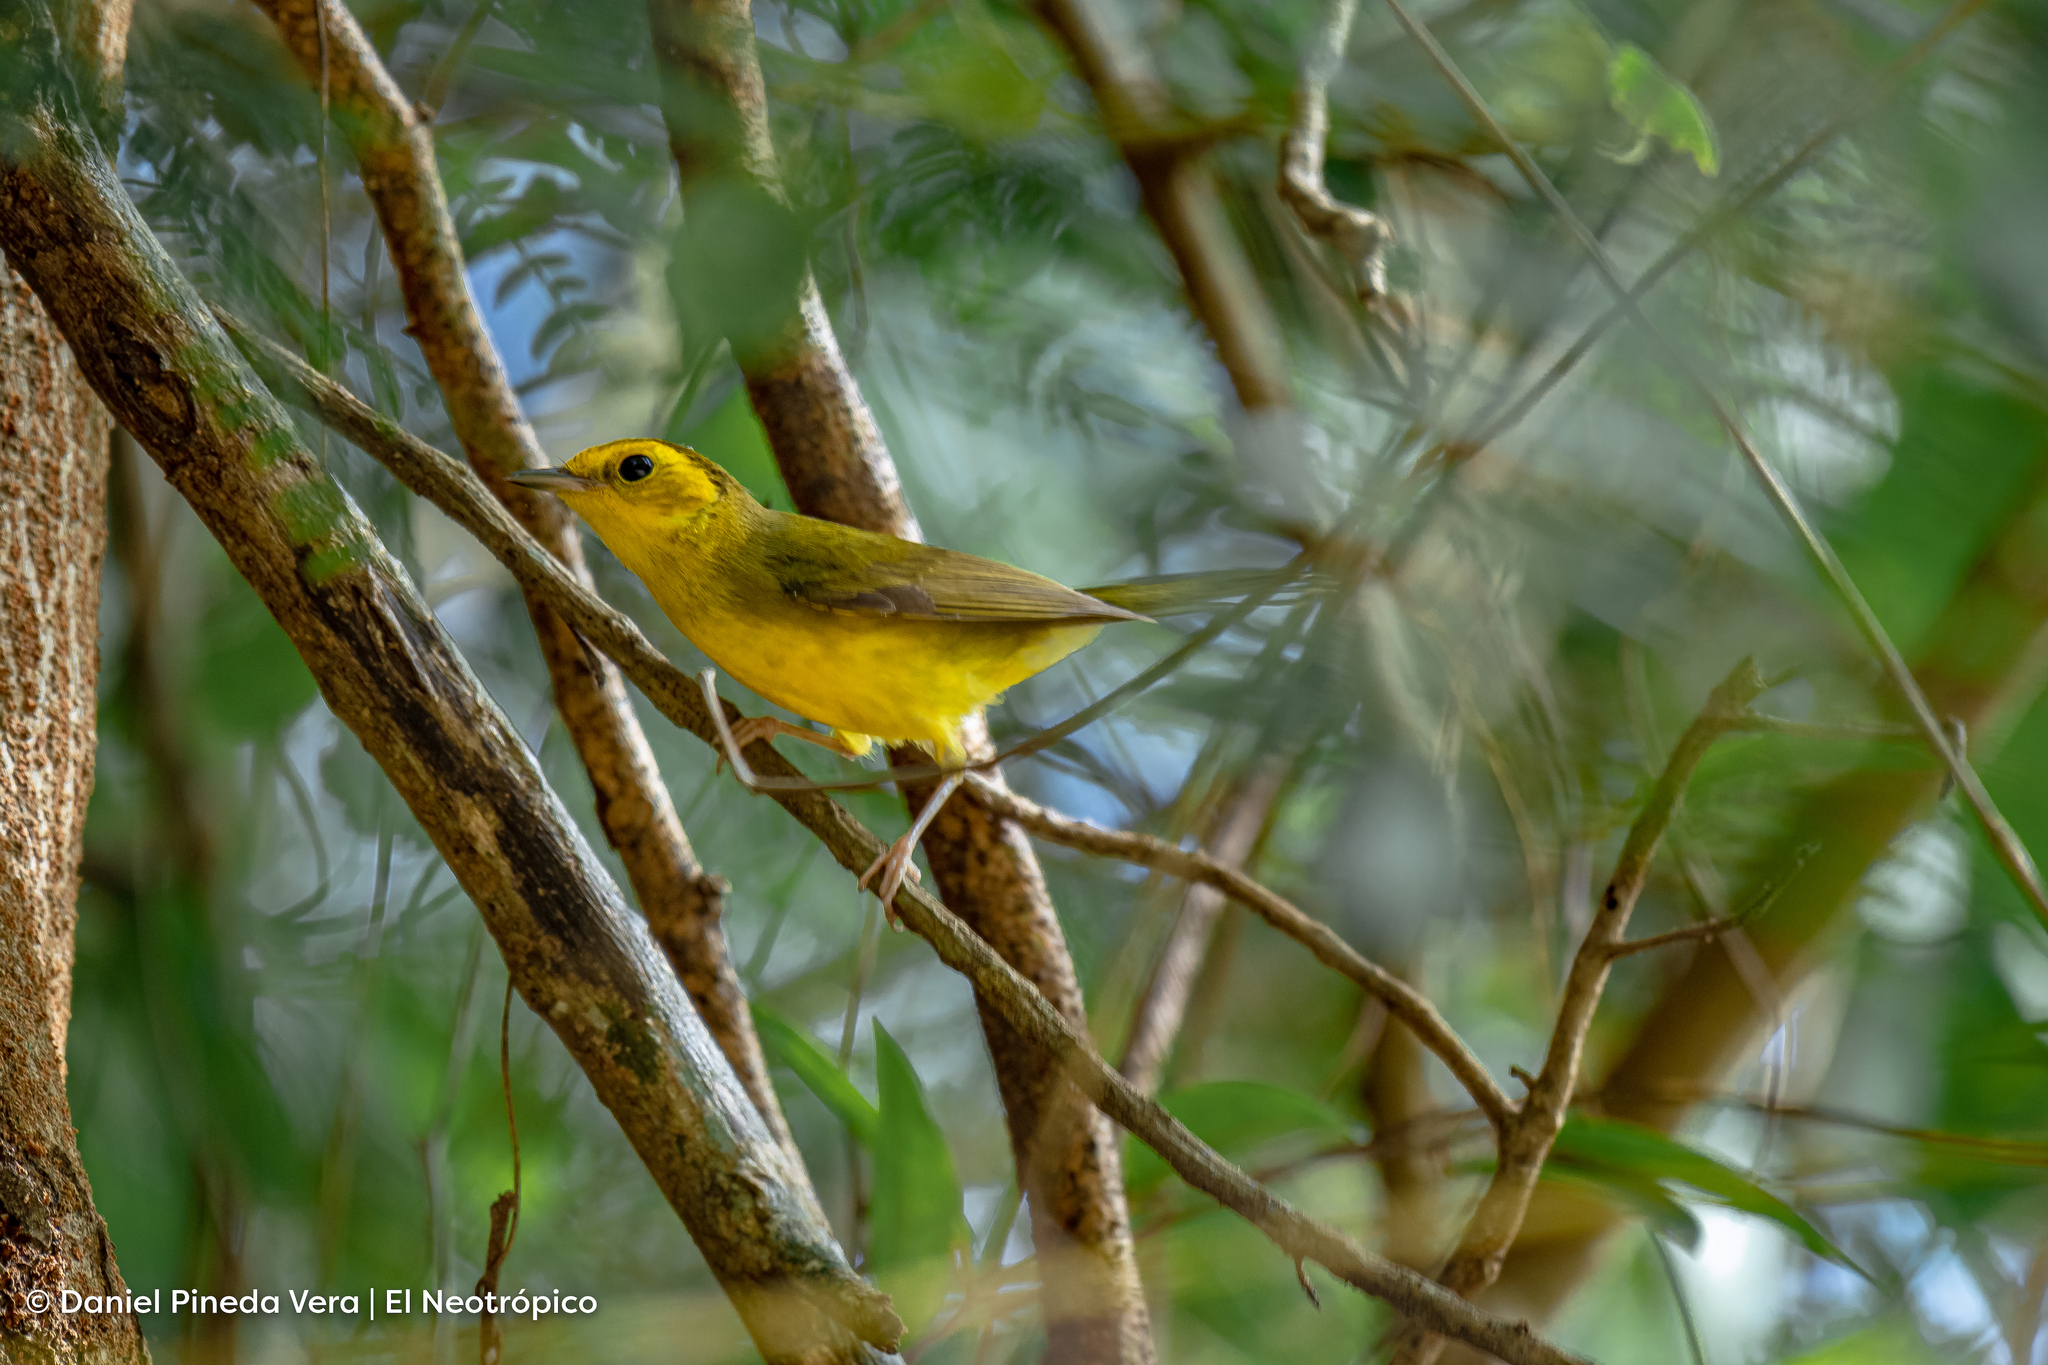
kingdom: Animalia
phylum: Chordata
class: Aves
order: Passeriformes
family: Parulidae
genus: Setophaga
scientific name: Setophaga citrina
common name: Hooded warbler
